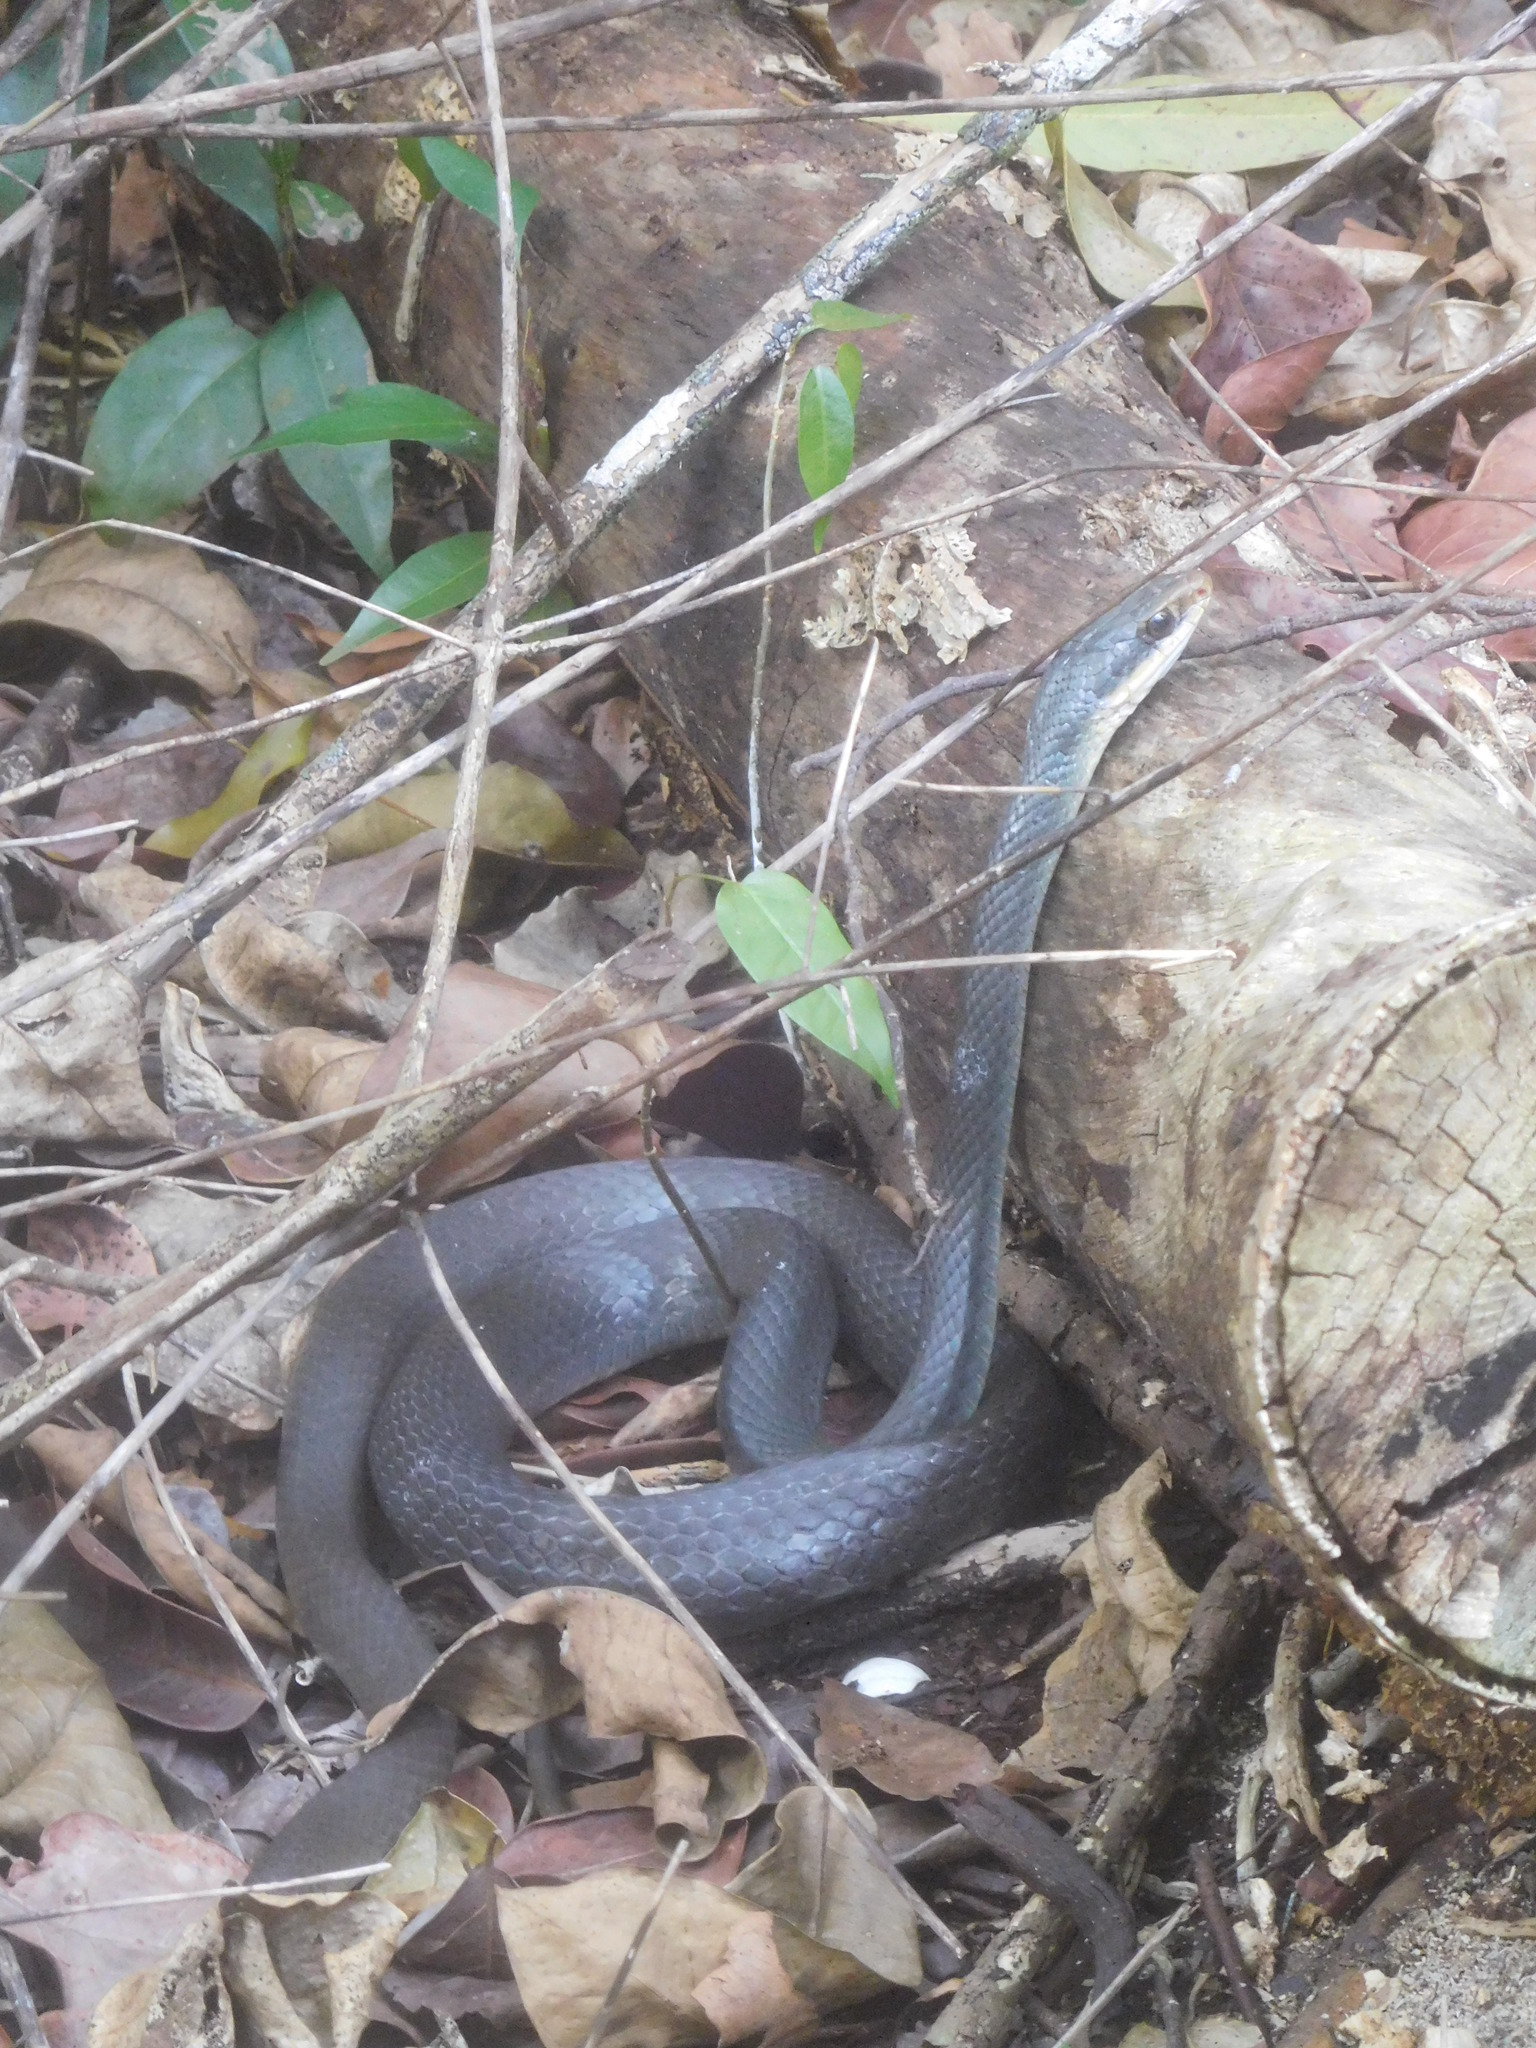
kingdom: Animalia
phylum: Chordata
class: Squamata
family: Colubridae
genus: Coluber
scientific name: Coluber constrictor
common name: Eastern racer
